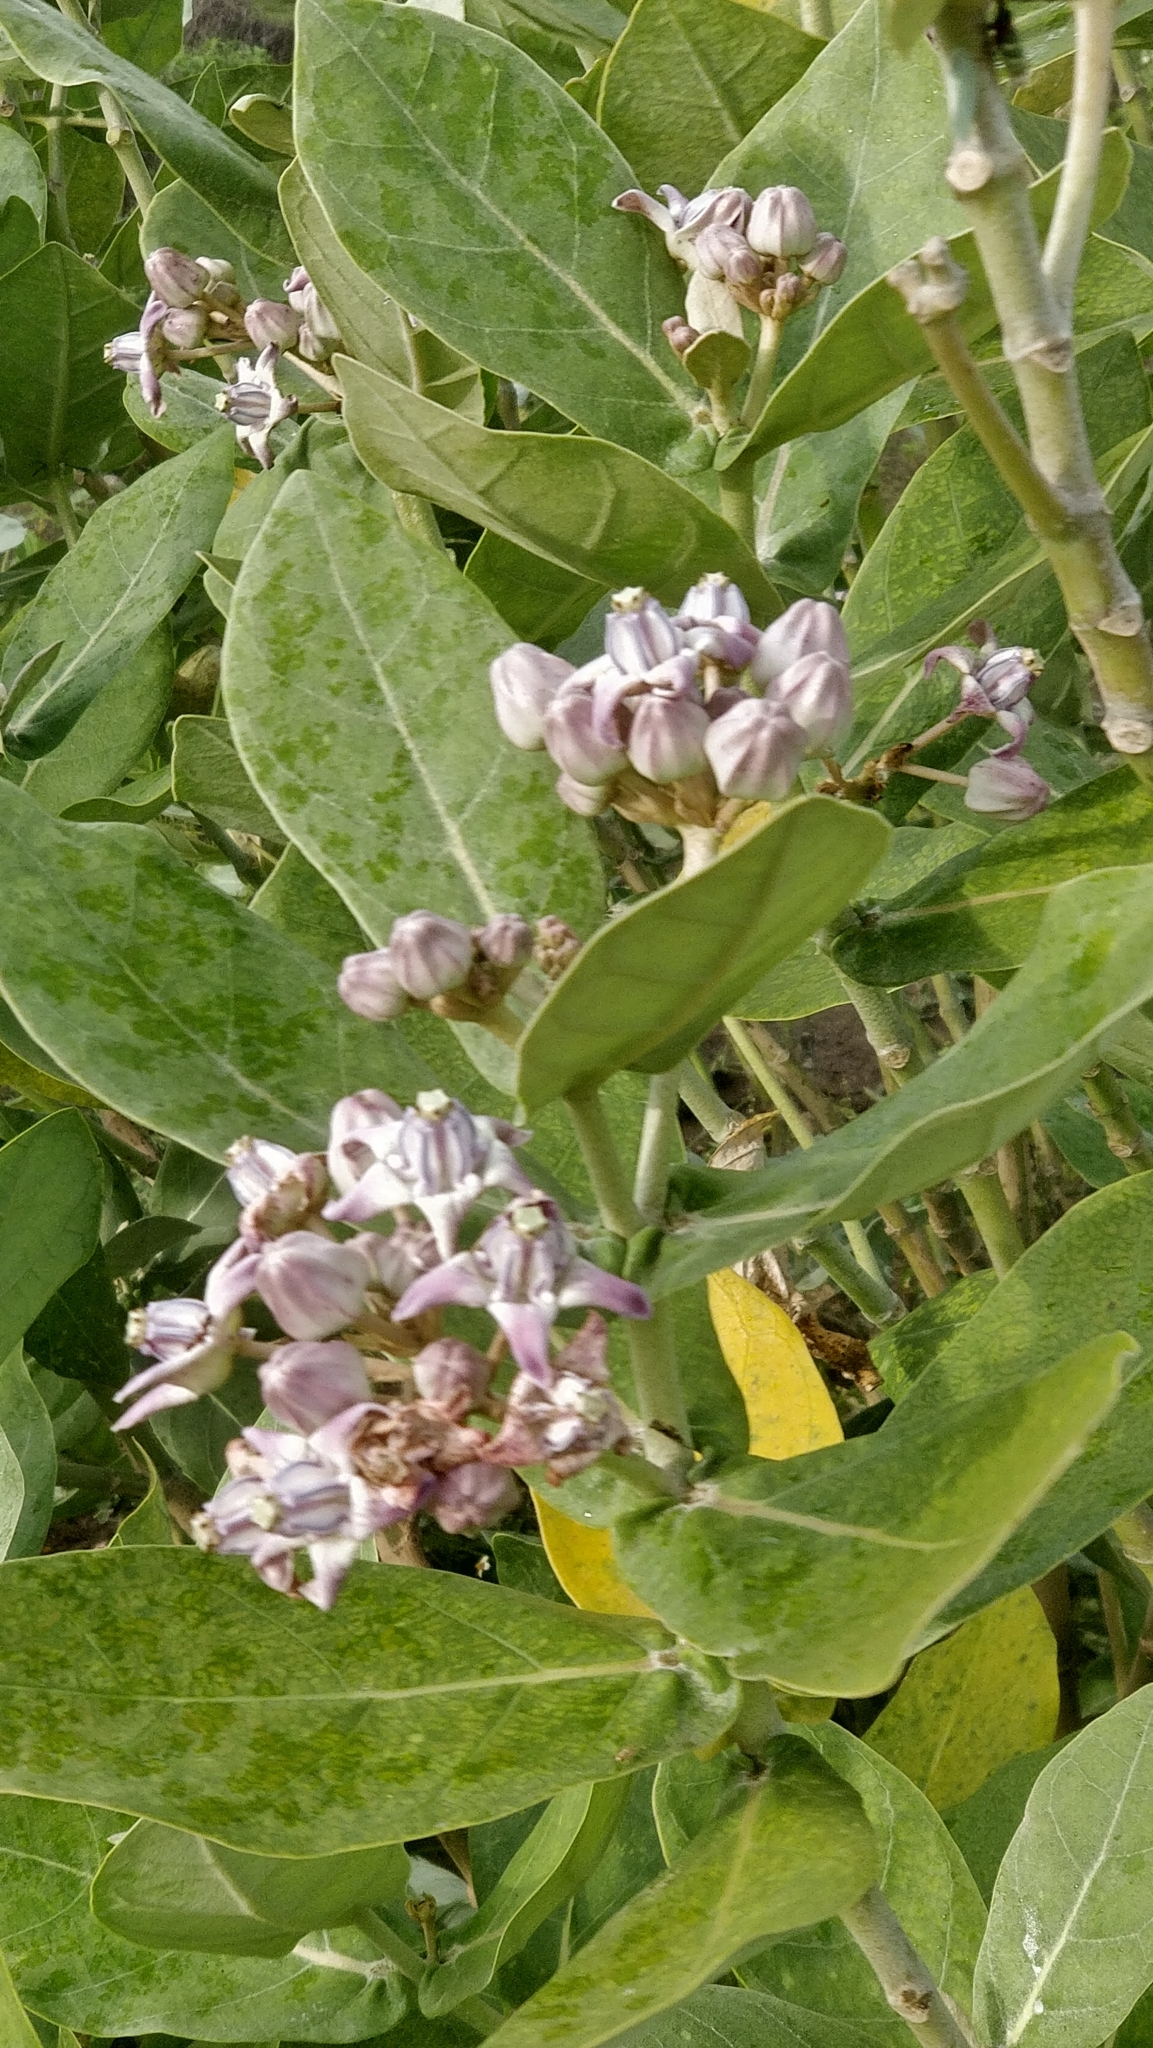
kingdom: Plantae
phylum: Tracheophyta
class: Magnoliopsida
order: Gentianales
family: Apocynaceae
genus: Calotropis
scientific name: Calotropis gigantea
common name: Crown flower
